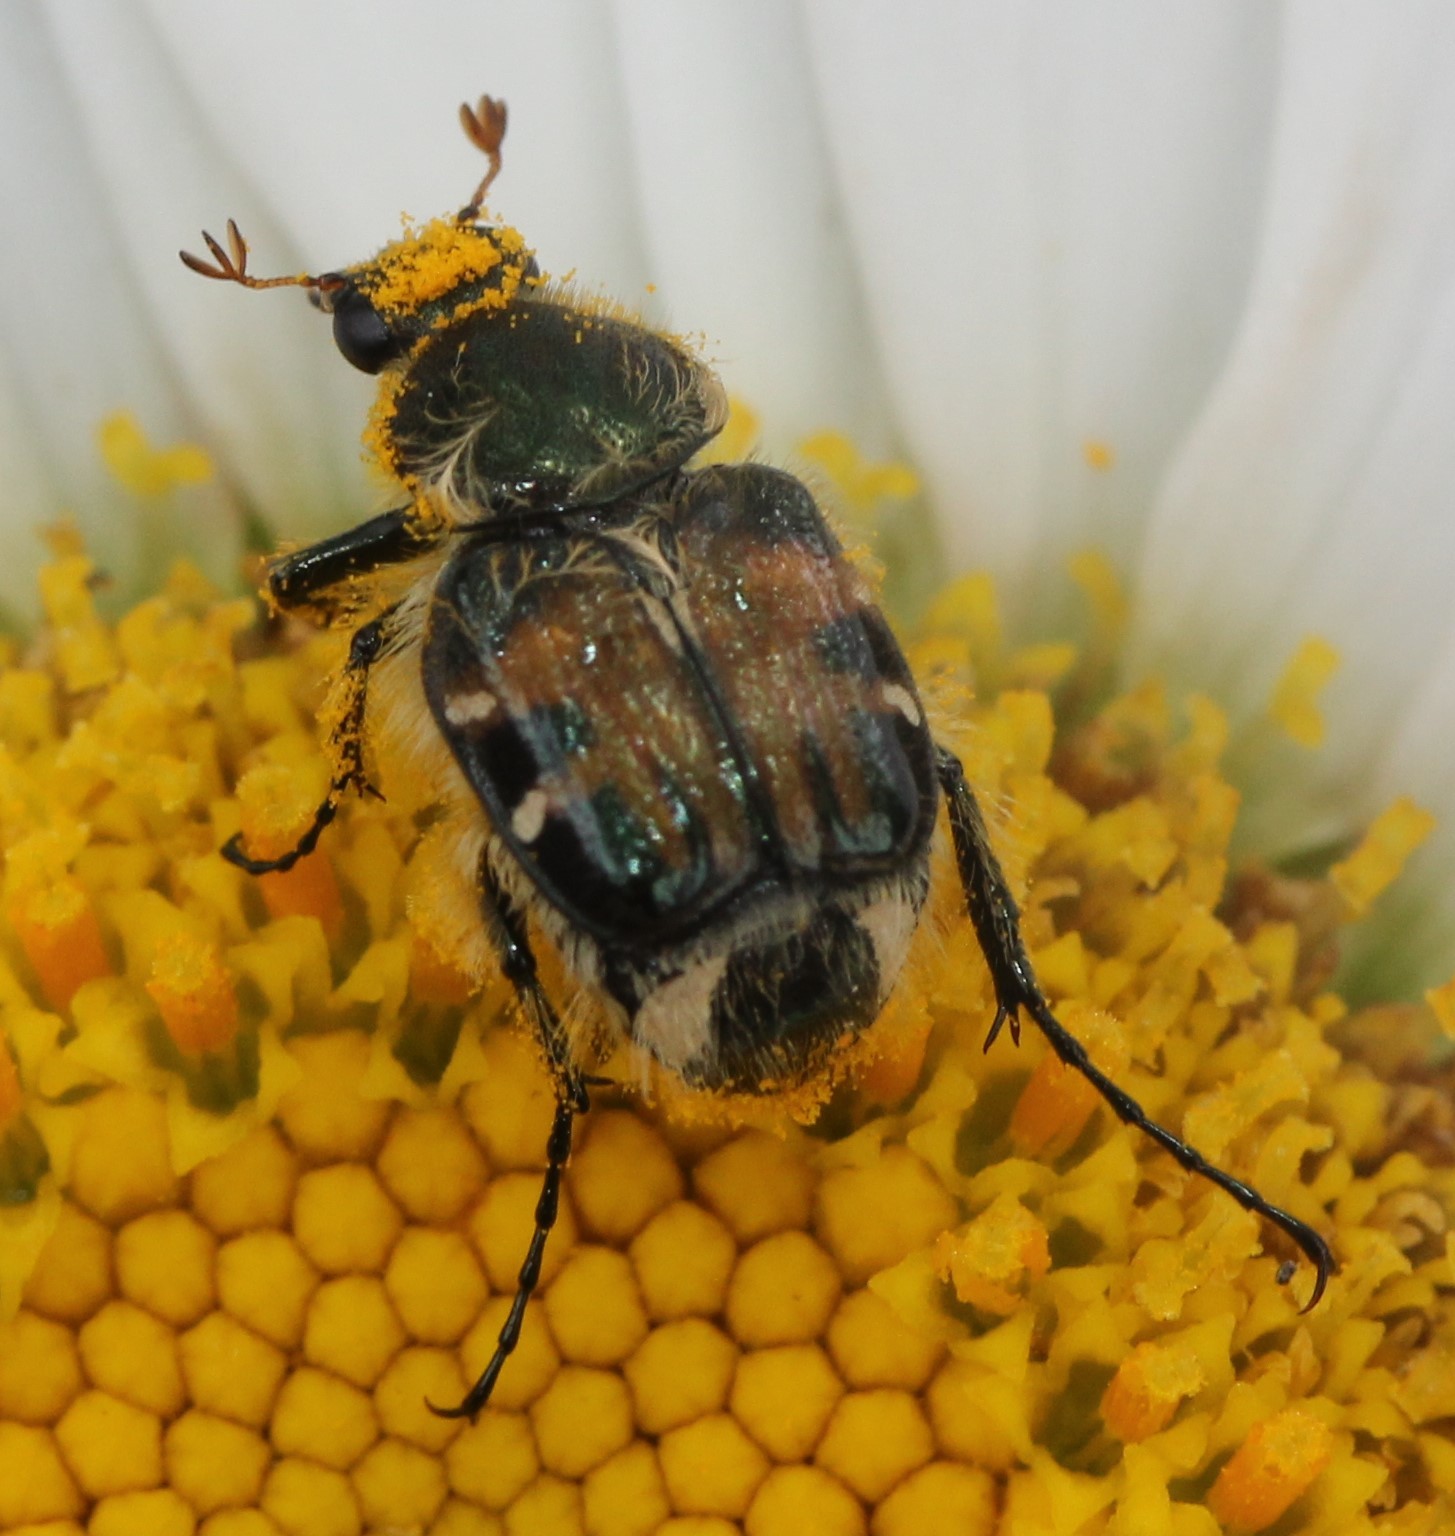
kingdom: Animalia
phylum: Arthropoda
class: Insecta
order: Coleoptera
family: Scarabaeidae
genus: Trichiotinus
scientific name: Trichiotinus affinis
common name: Hairy flower scarab
